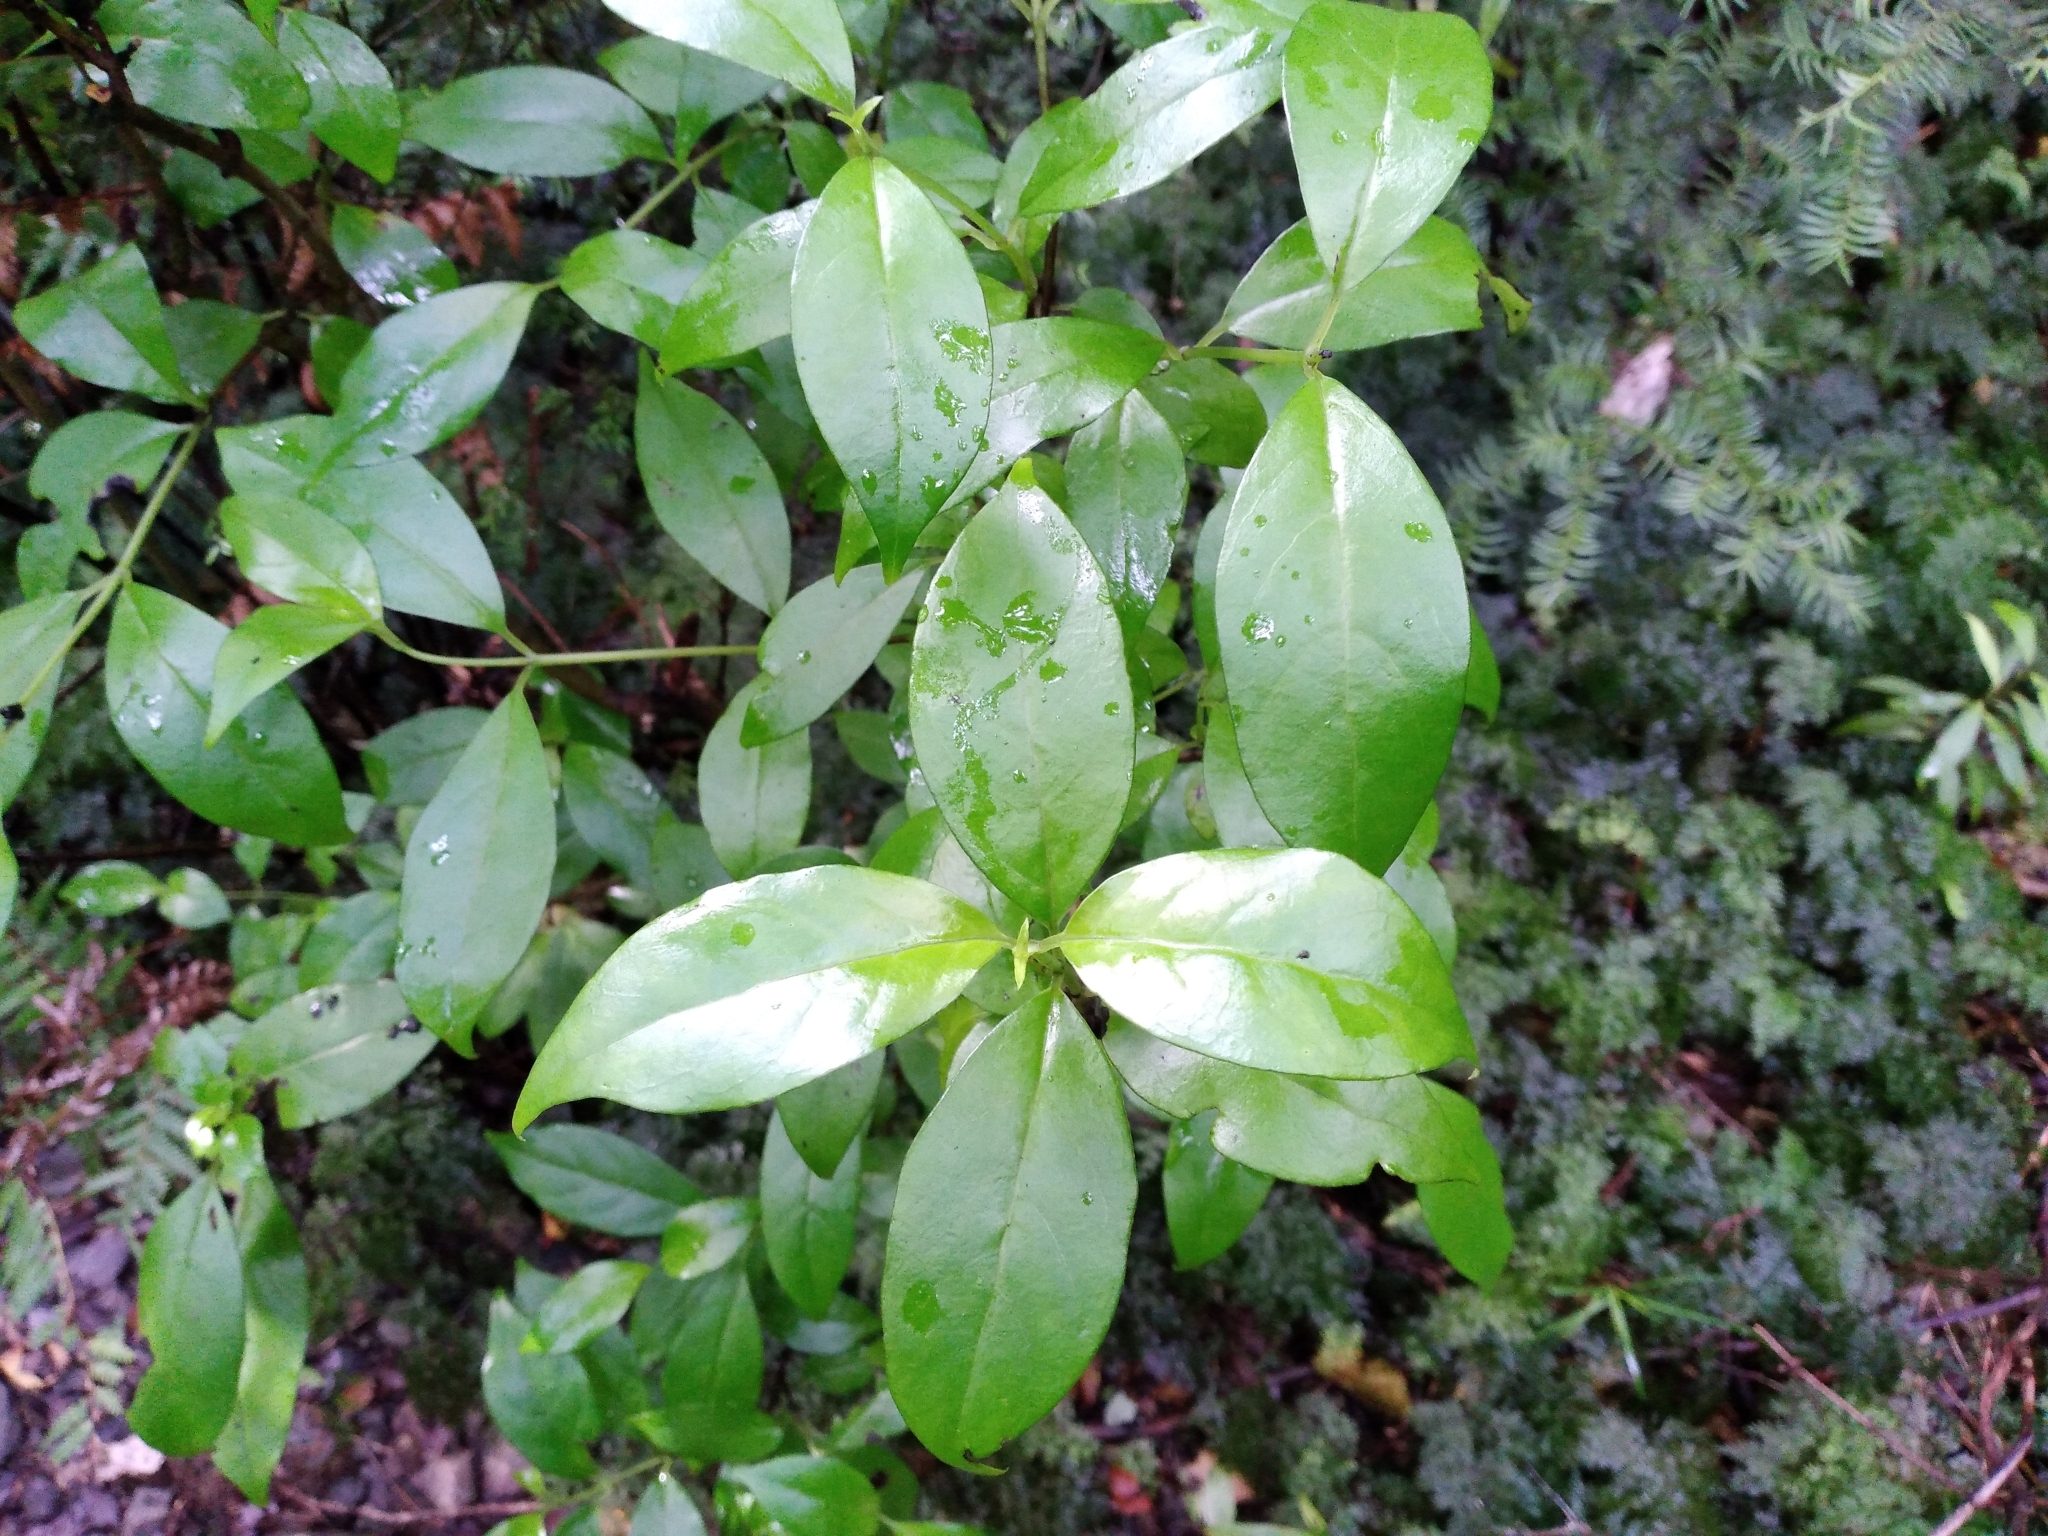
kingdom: Plantae
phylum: Tracheophyta
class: Magnoliopsida
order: Gentianales
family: Loganiaceae
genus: Geniostoma
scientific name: Geniostoma ligustrifolium
